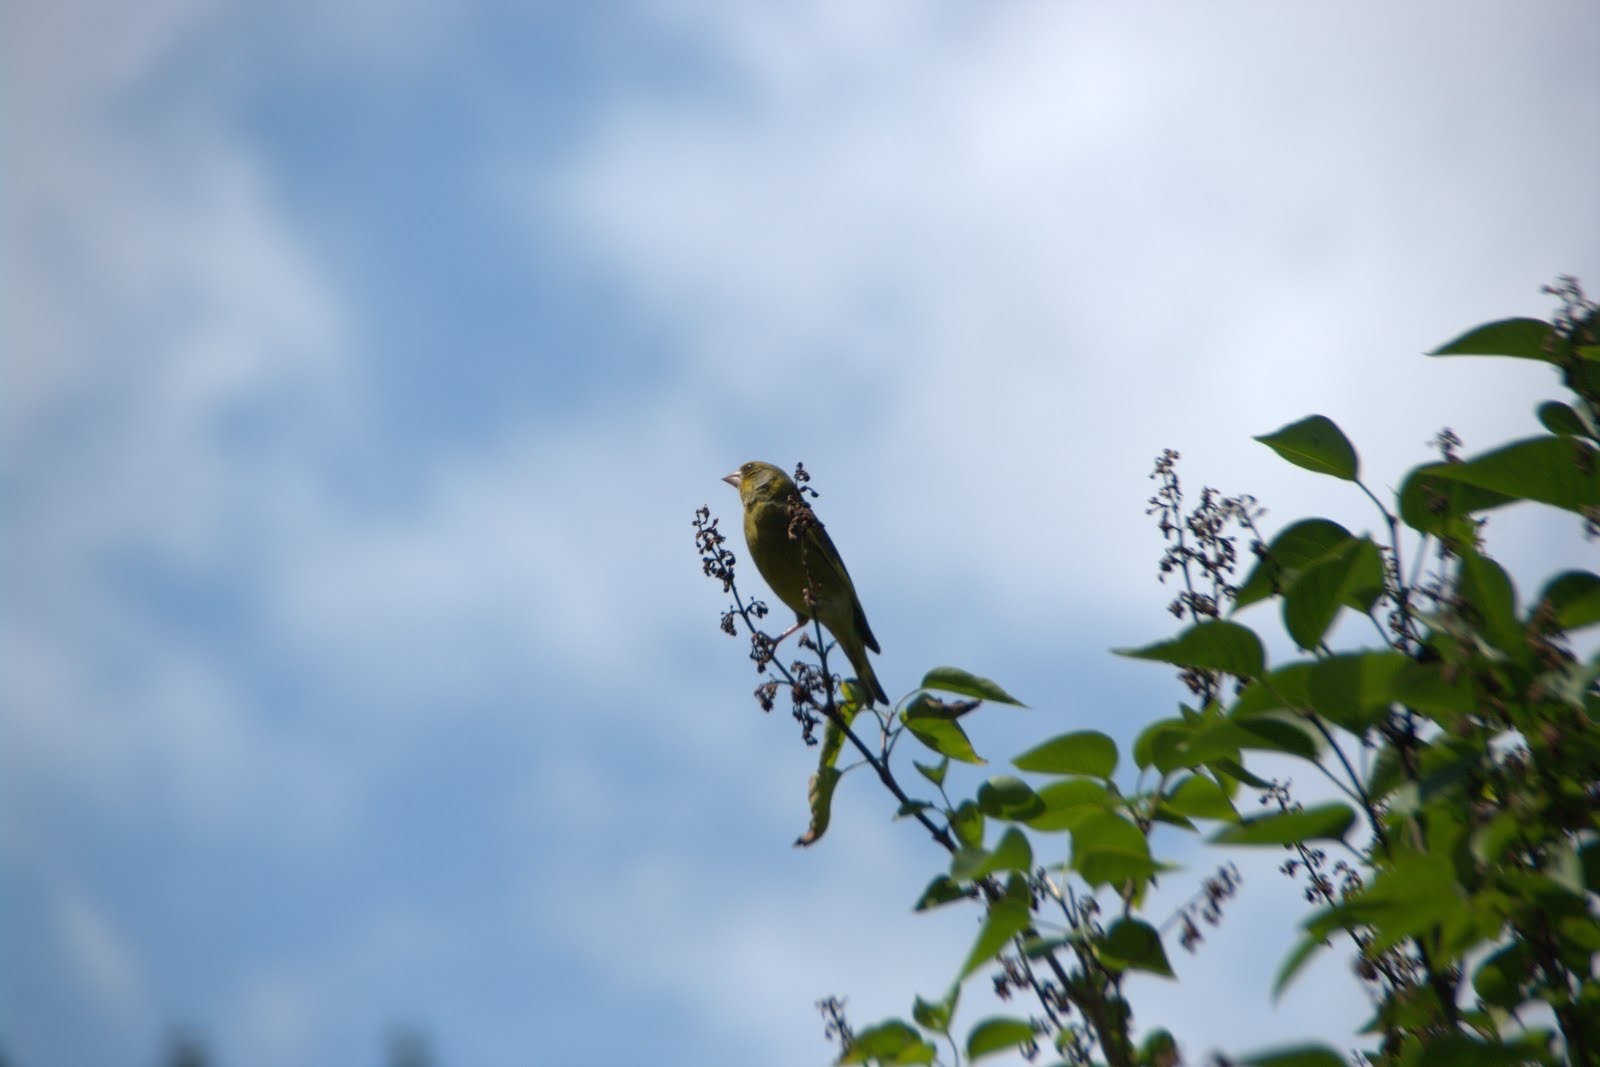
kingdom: Plantae
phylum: Tracheophyta
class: Liliopsida
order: Poales
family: Poaceae
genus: Chloris
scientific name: Chloris chloris
